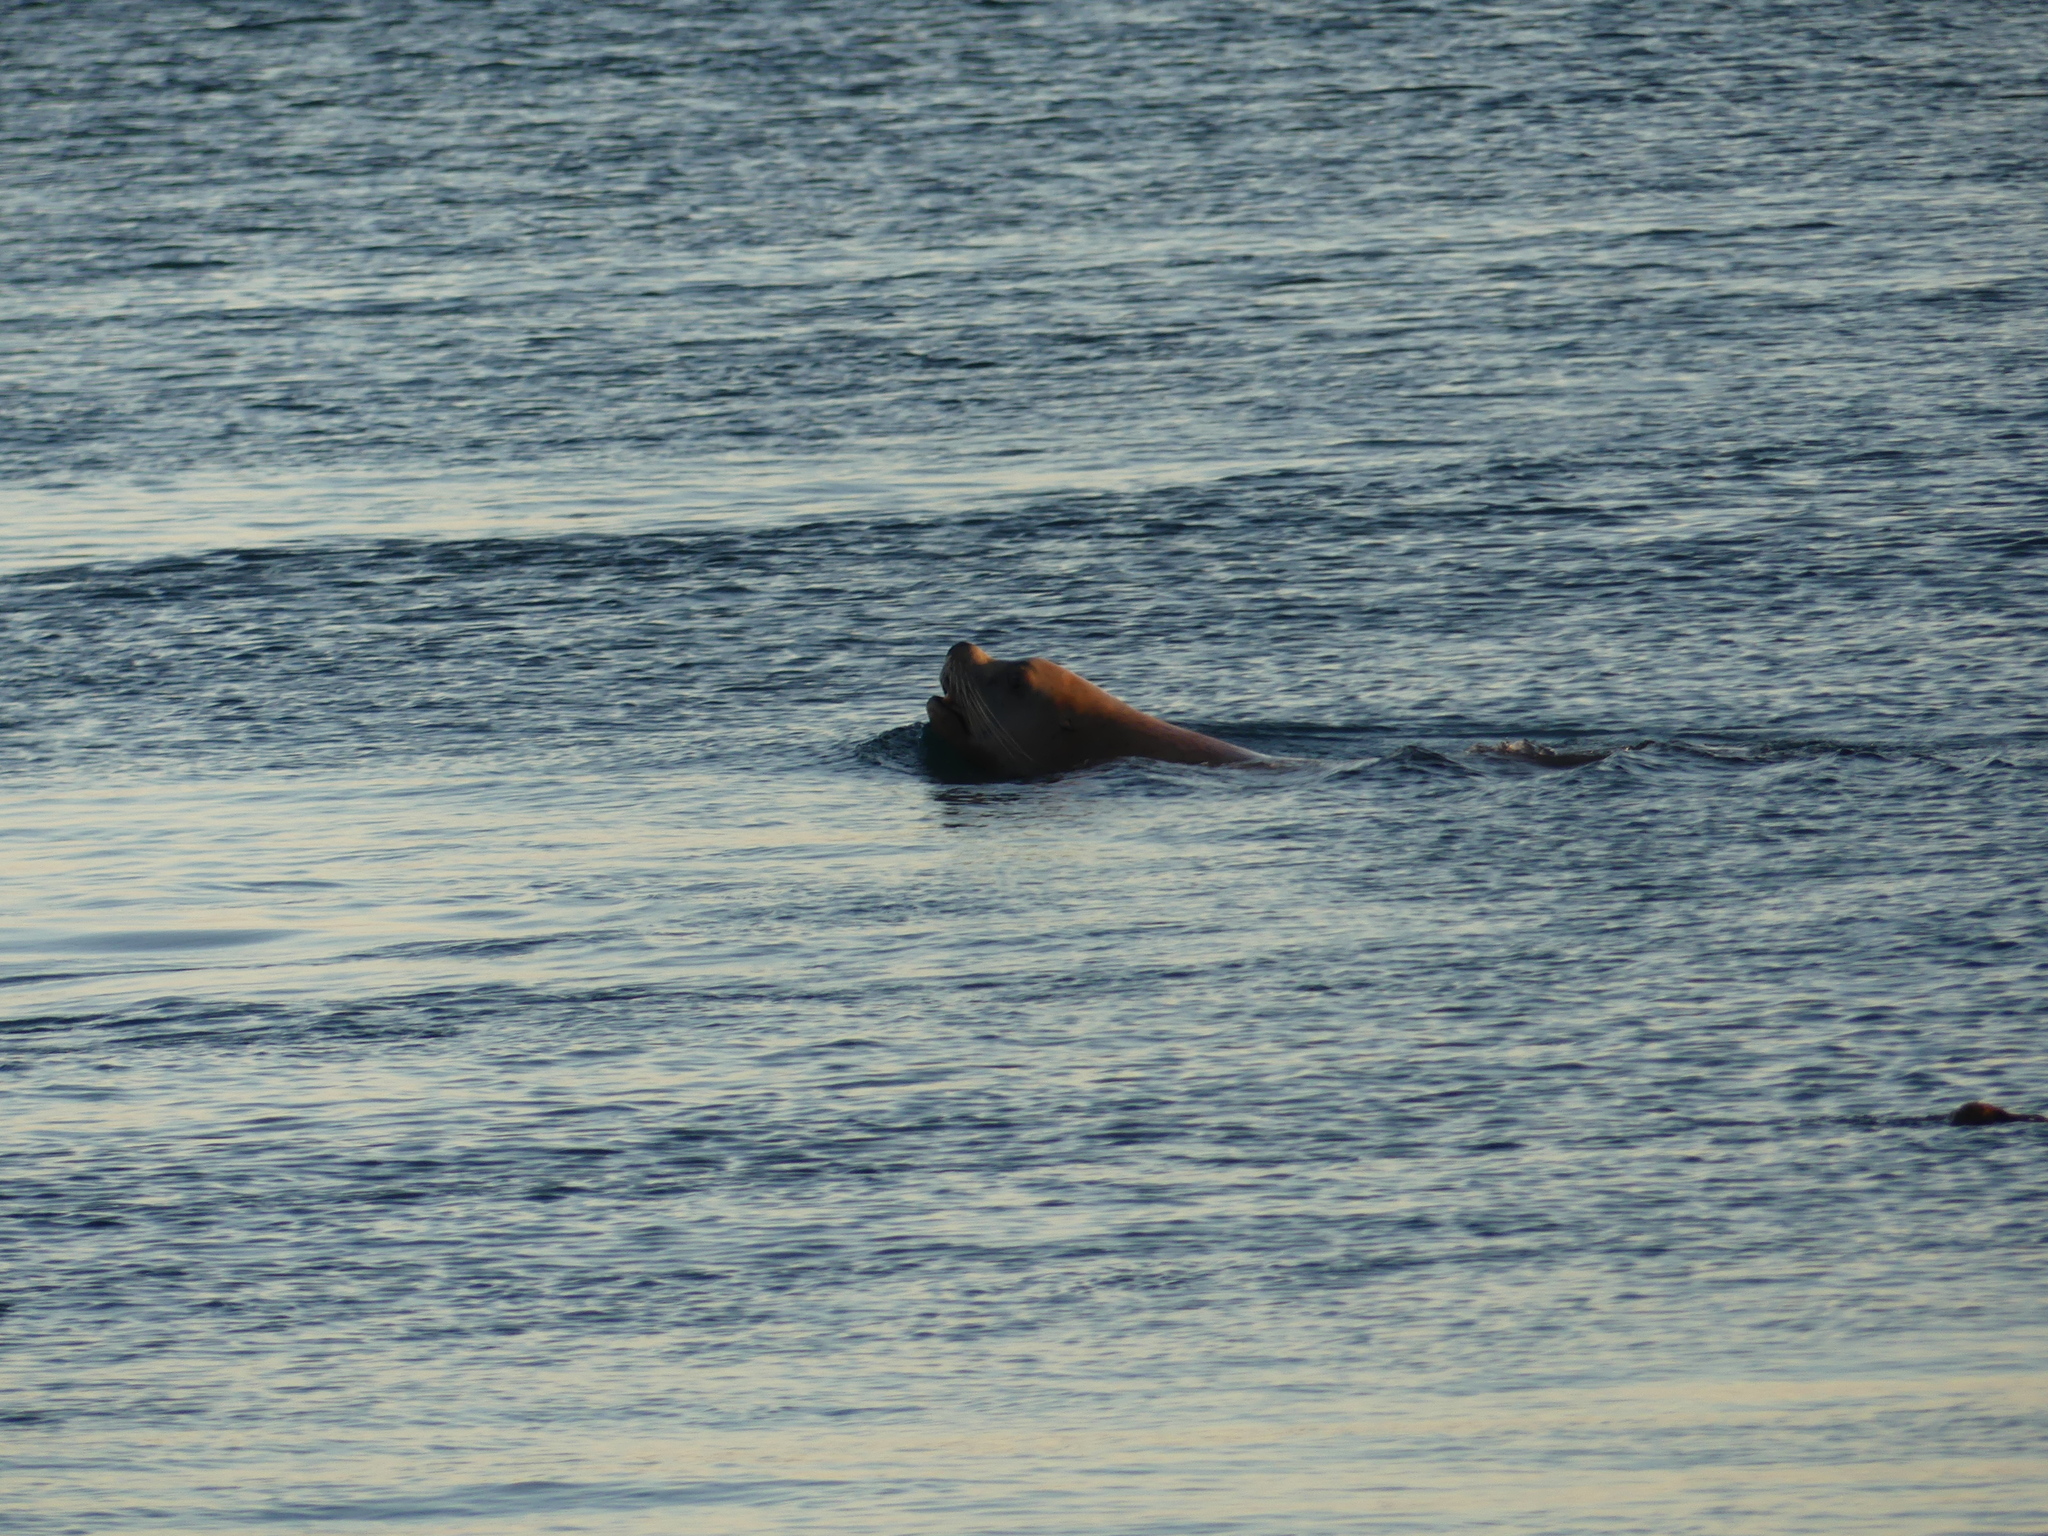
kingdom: Animalia
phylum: Chordata
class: Mammalia
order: Carnivora
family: Otariidae
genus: Eumetopias
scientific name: Eumetopias jubatus
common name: Steller sea lion
